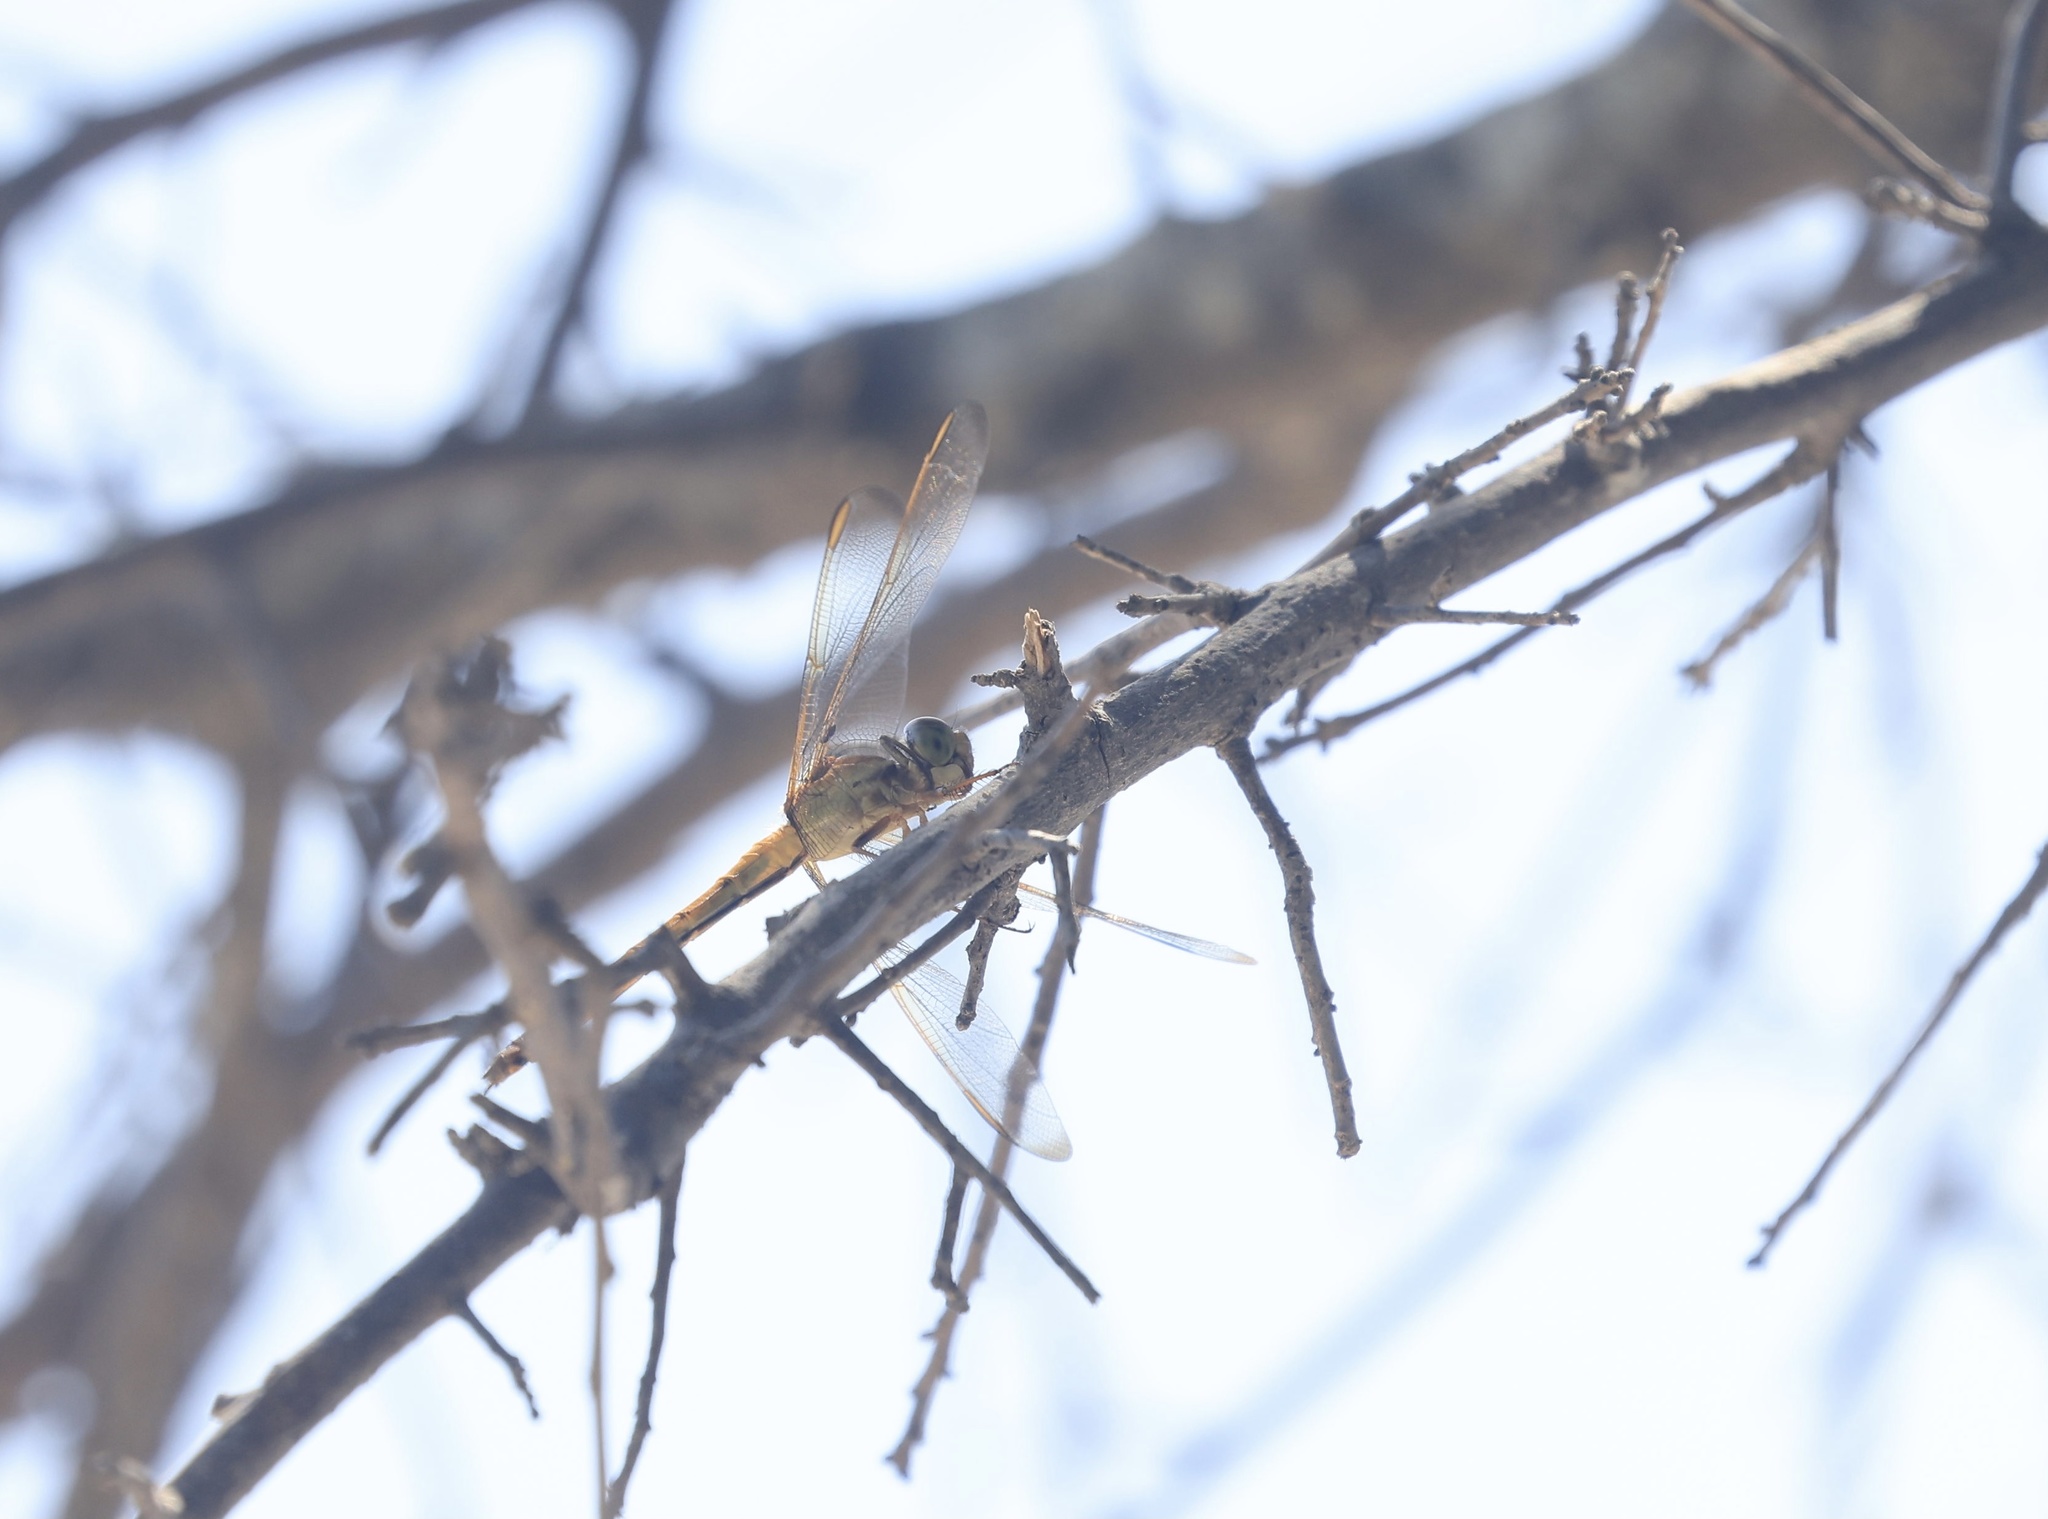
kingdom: Animalia
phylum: Arthropoda
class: Insecta
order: Odonata
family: Libellulidae
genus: Libellula
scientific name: Libellula needhami
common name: Needham's skimmer
